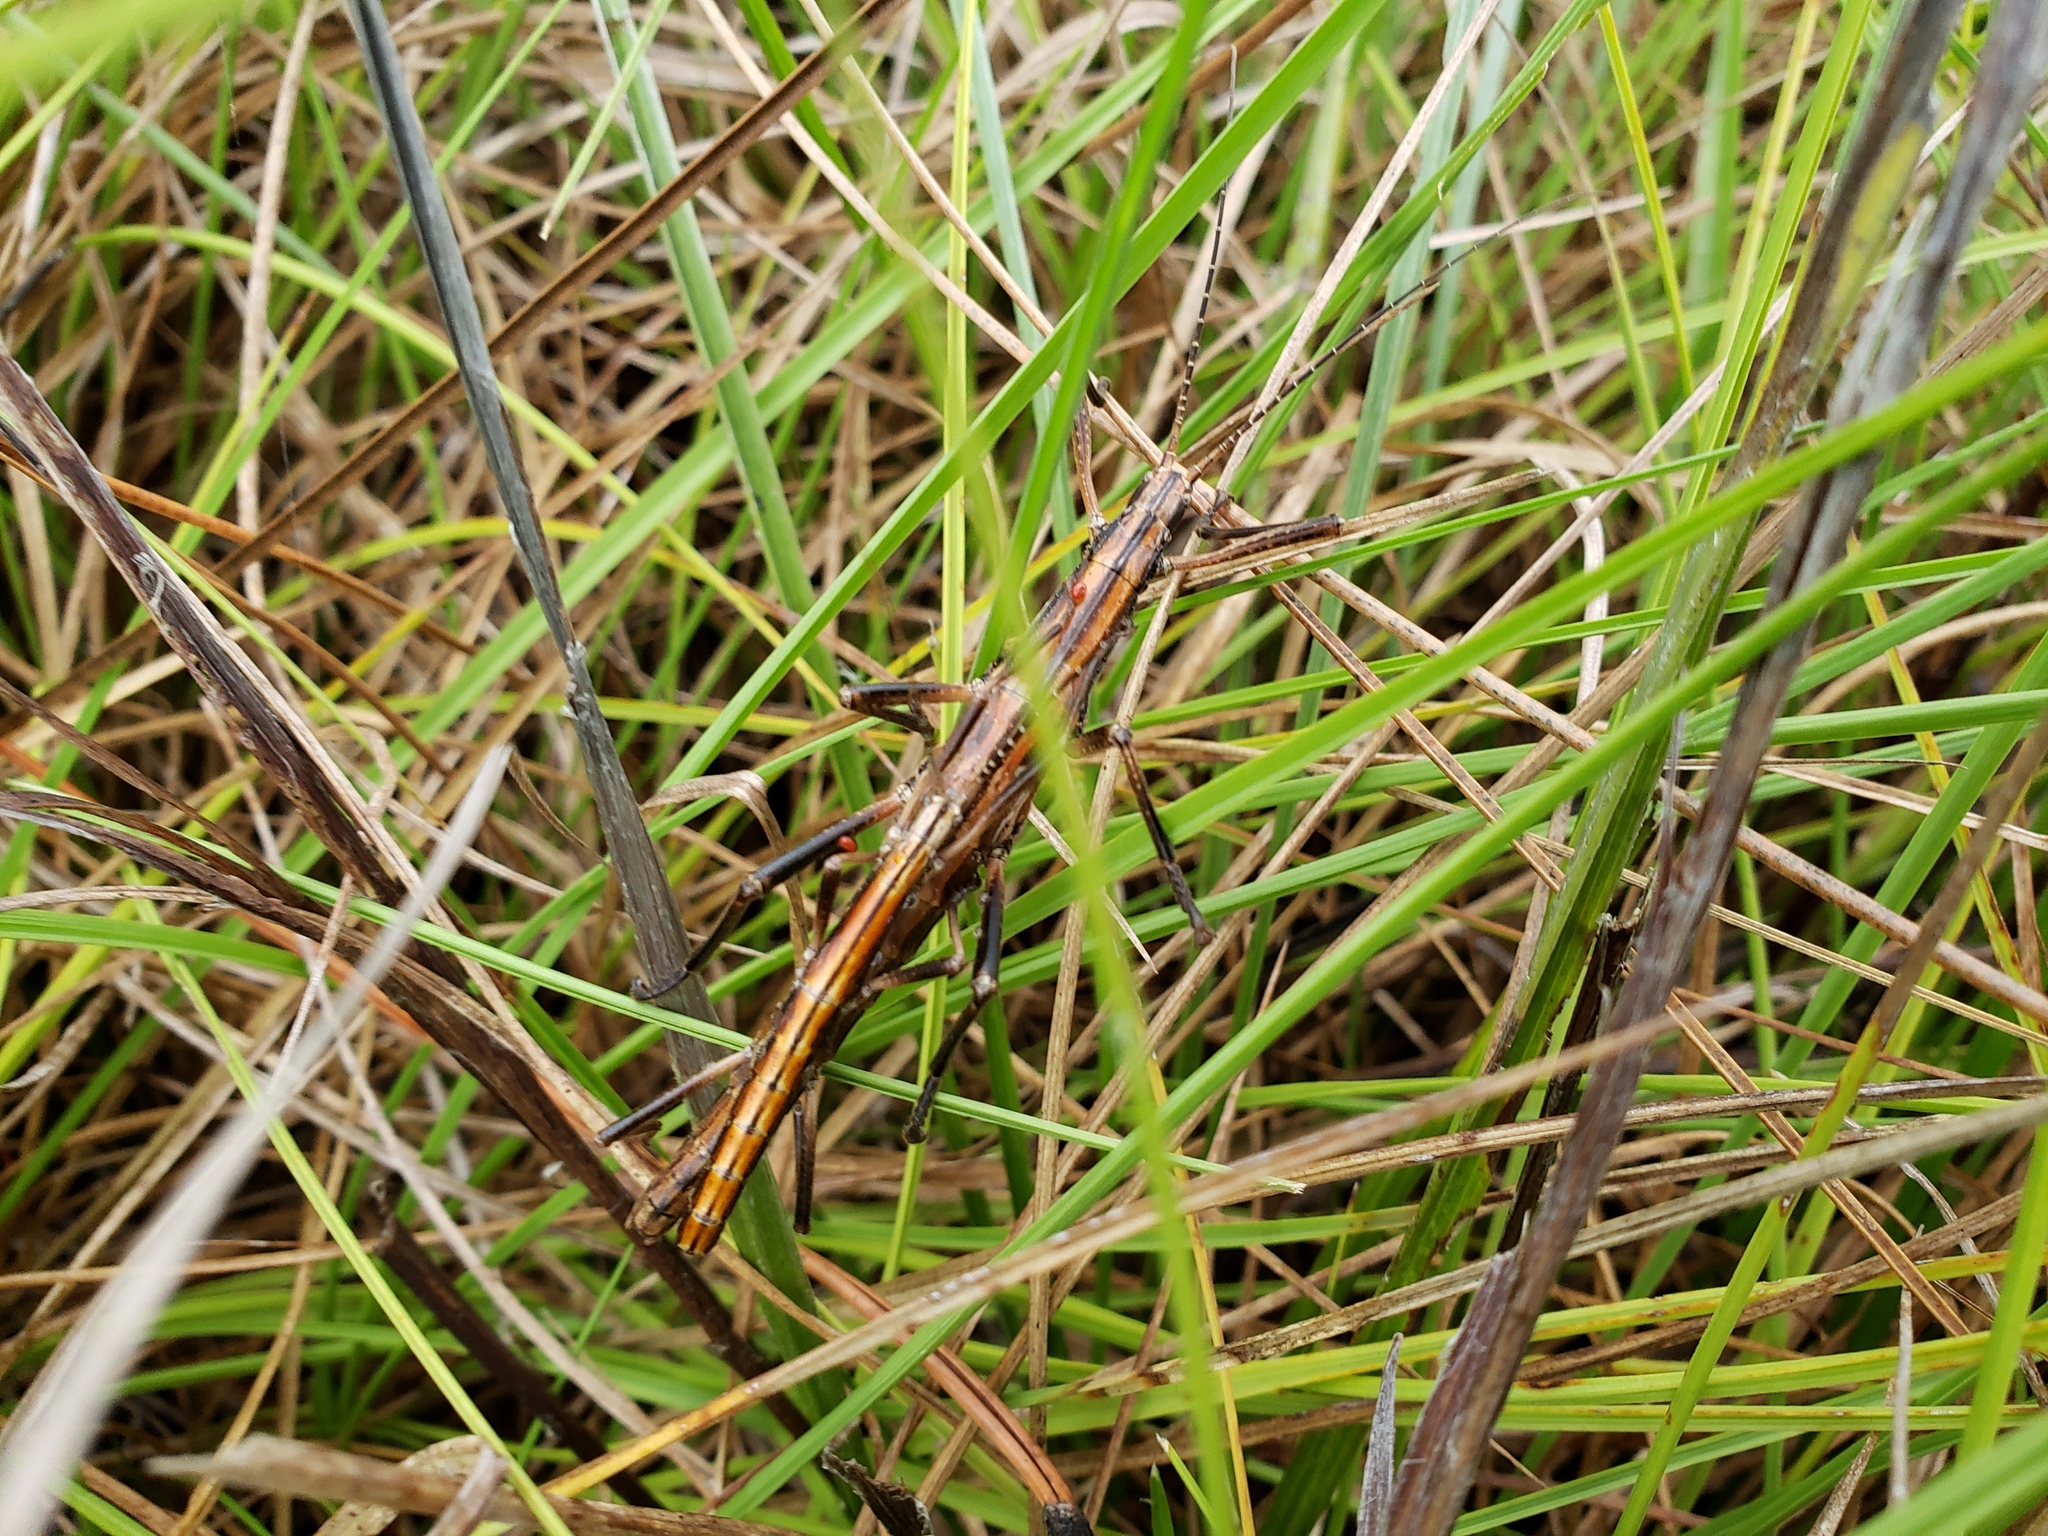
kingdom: Animalia
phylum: Arthropoda
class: Insecta
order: Phasmida
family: Pseudophasmatidae
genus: Anisomorpha
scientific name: Anisomorpha buprestoides
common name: Florida stick insect
